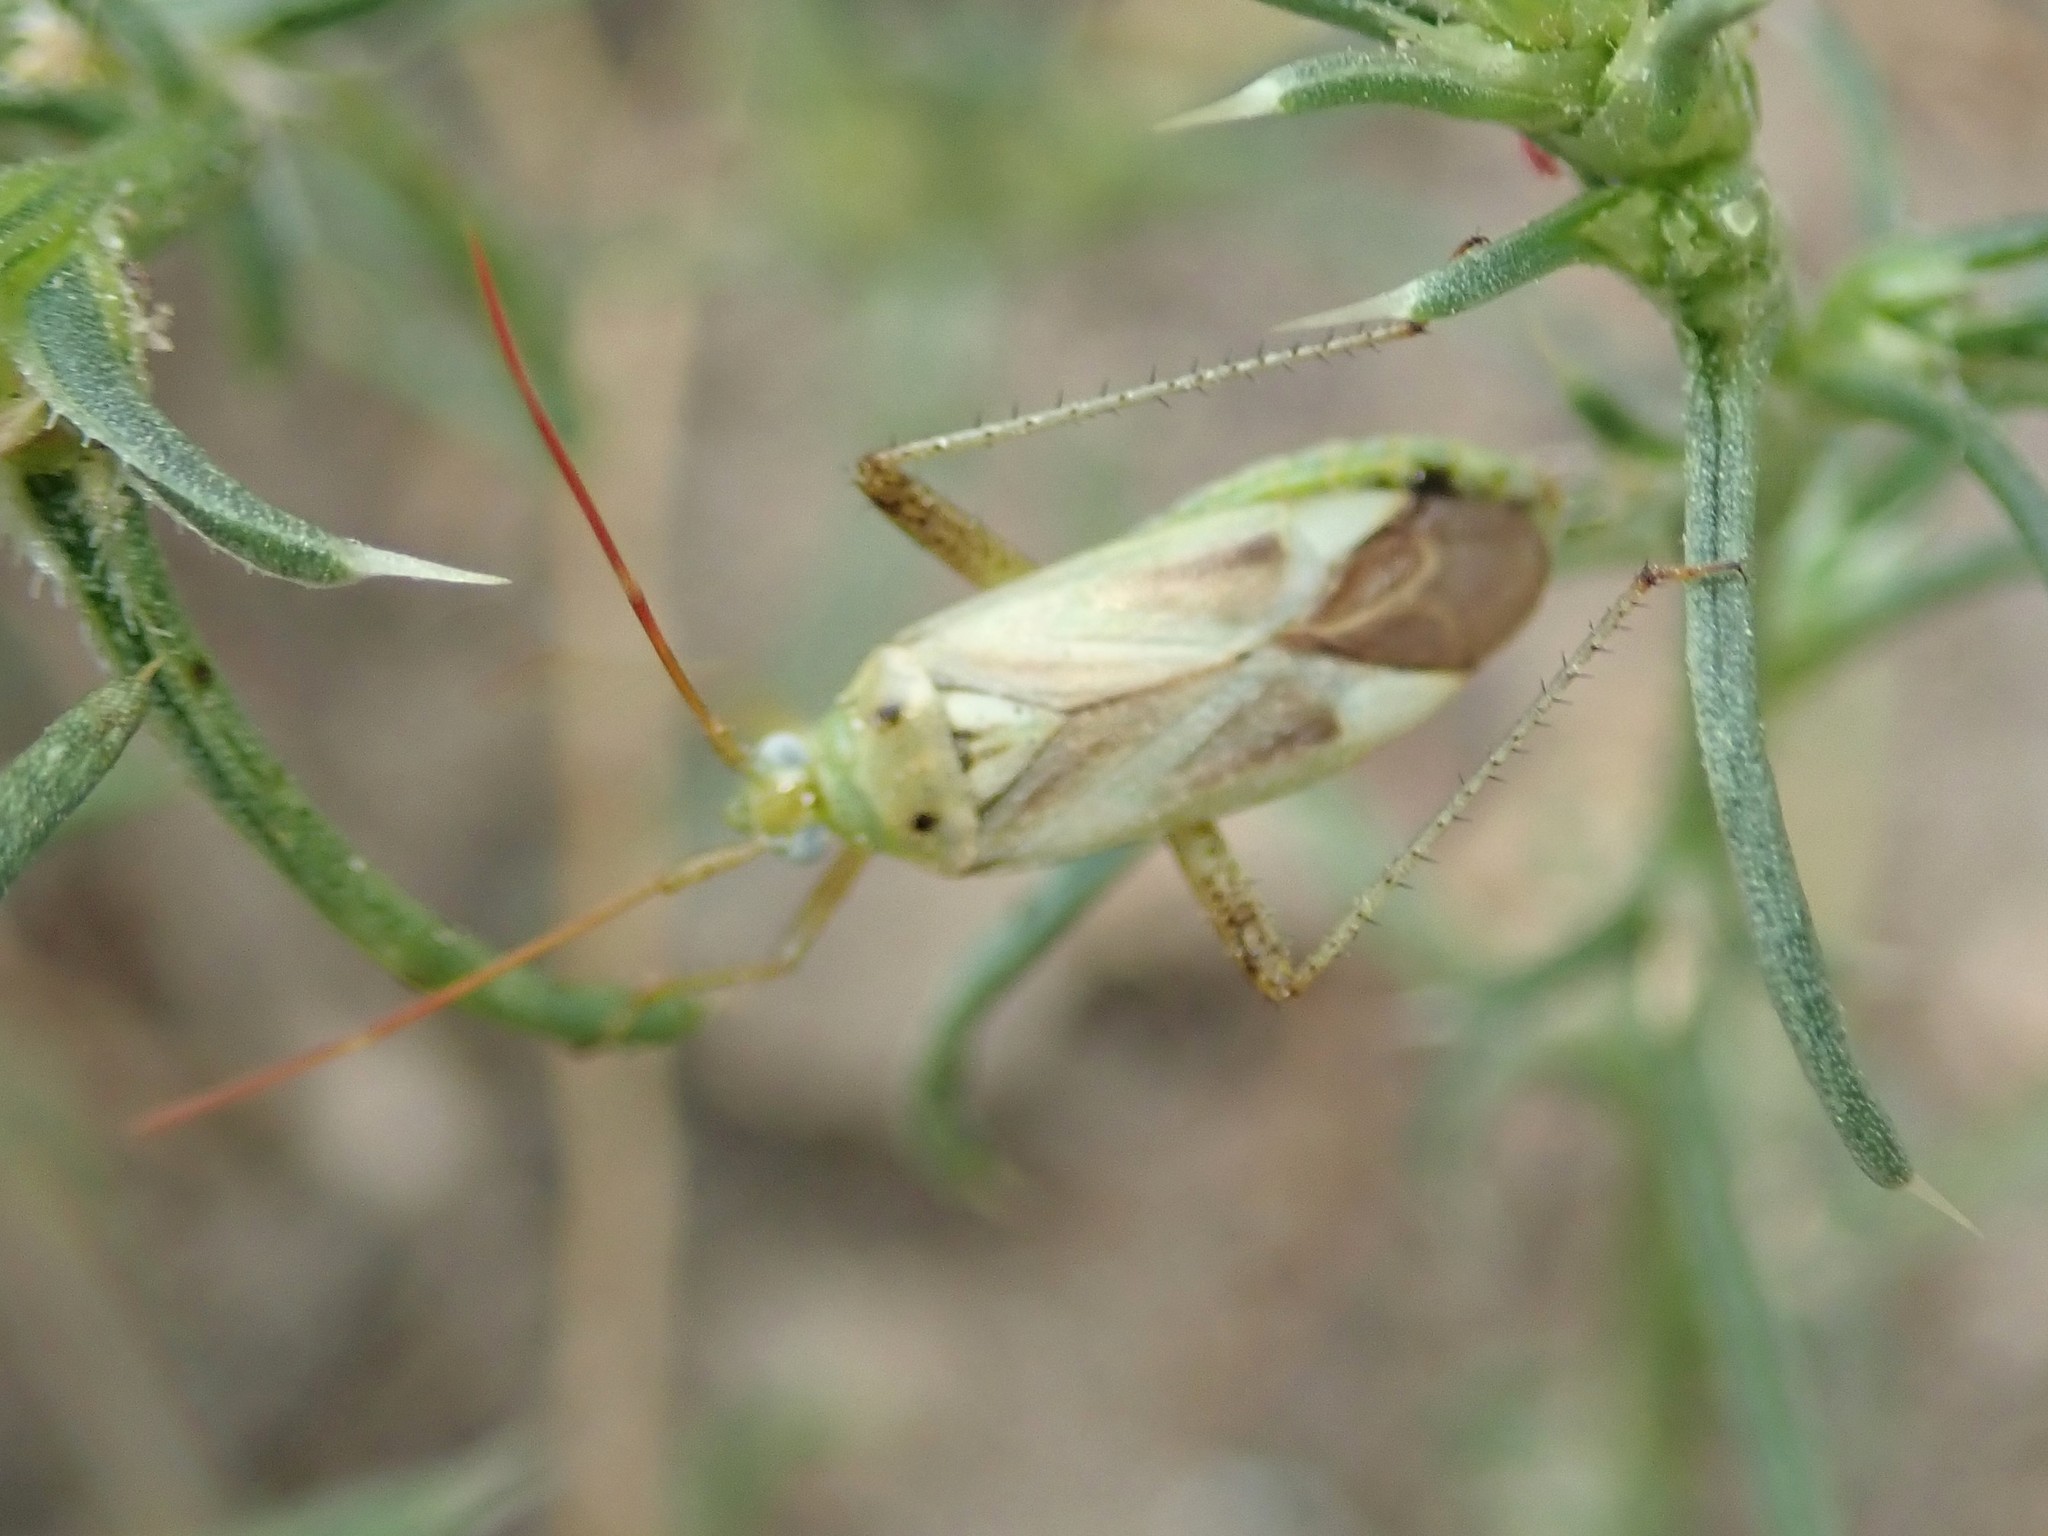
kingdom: Animalia
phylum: Arthropoda
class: Insecta
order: Hemiptera
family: Miridae
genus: Adelphocoris
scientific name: Adelphocoris lineolatus
